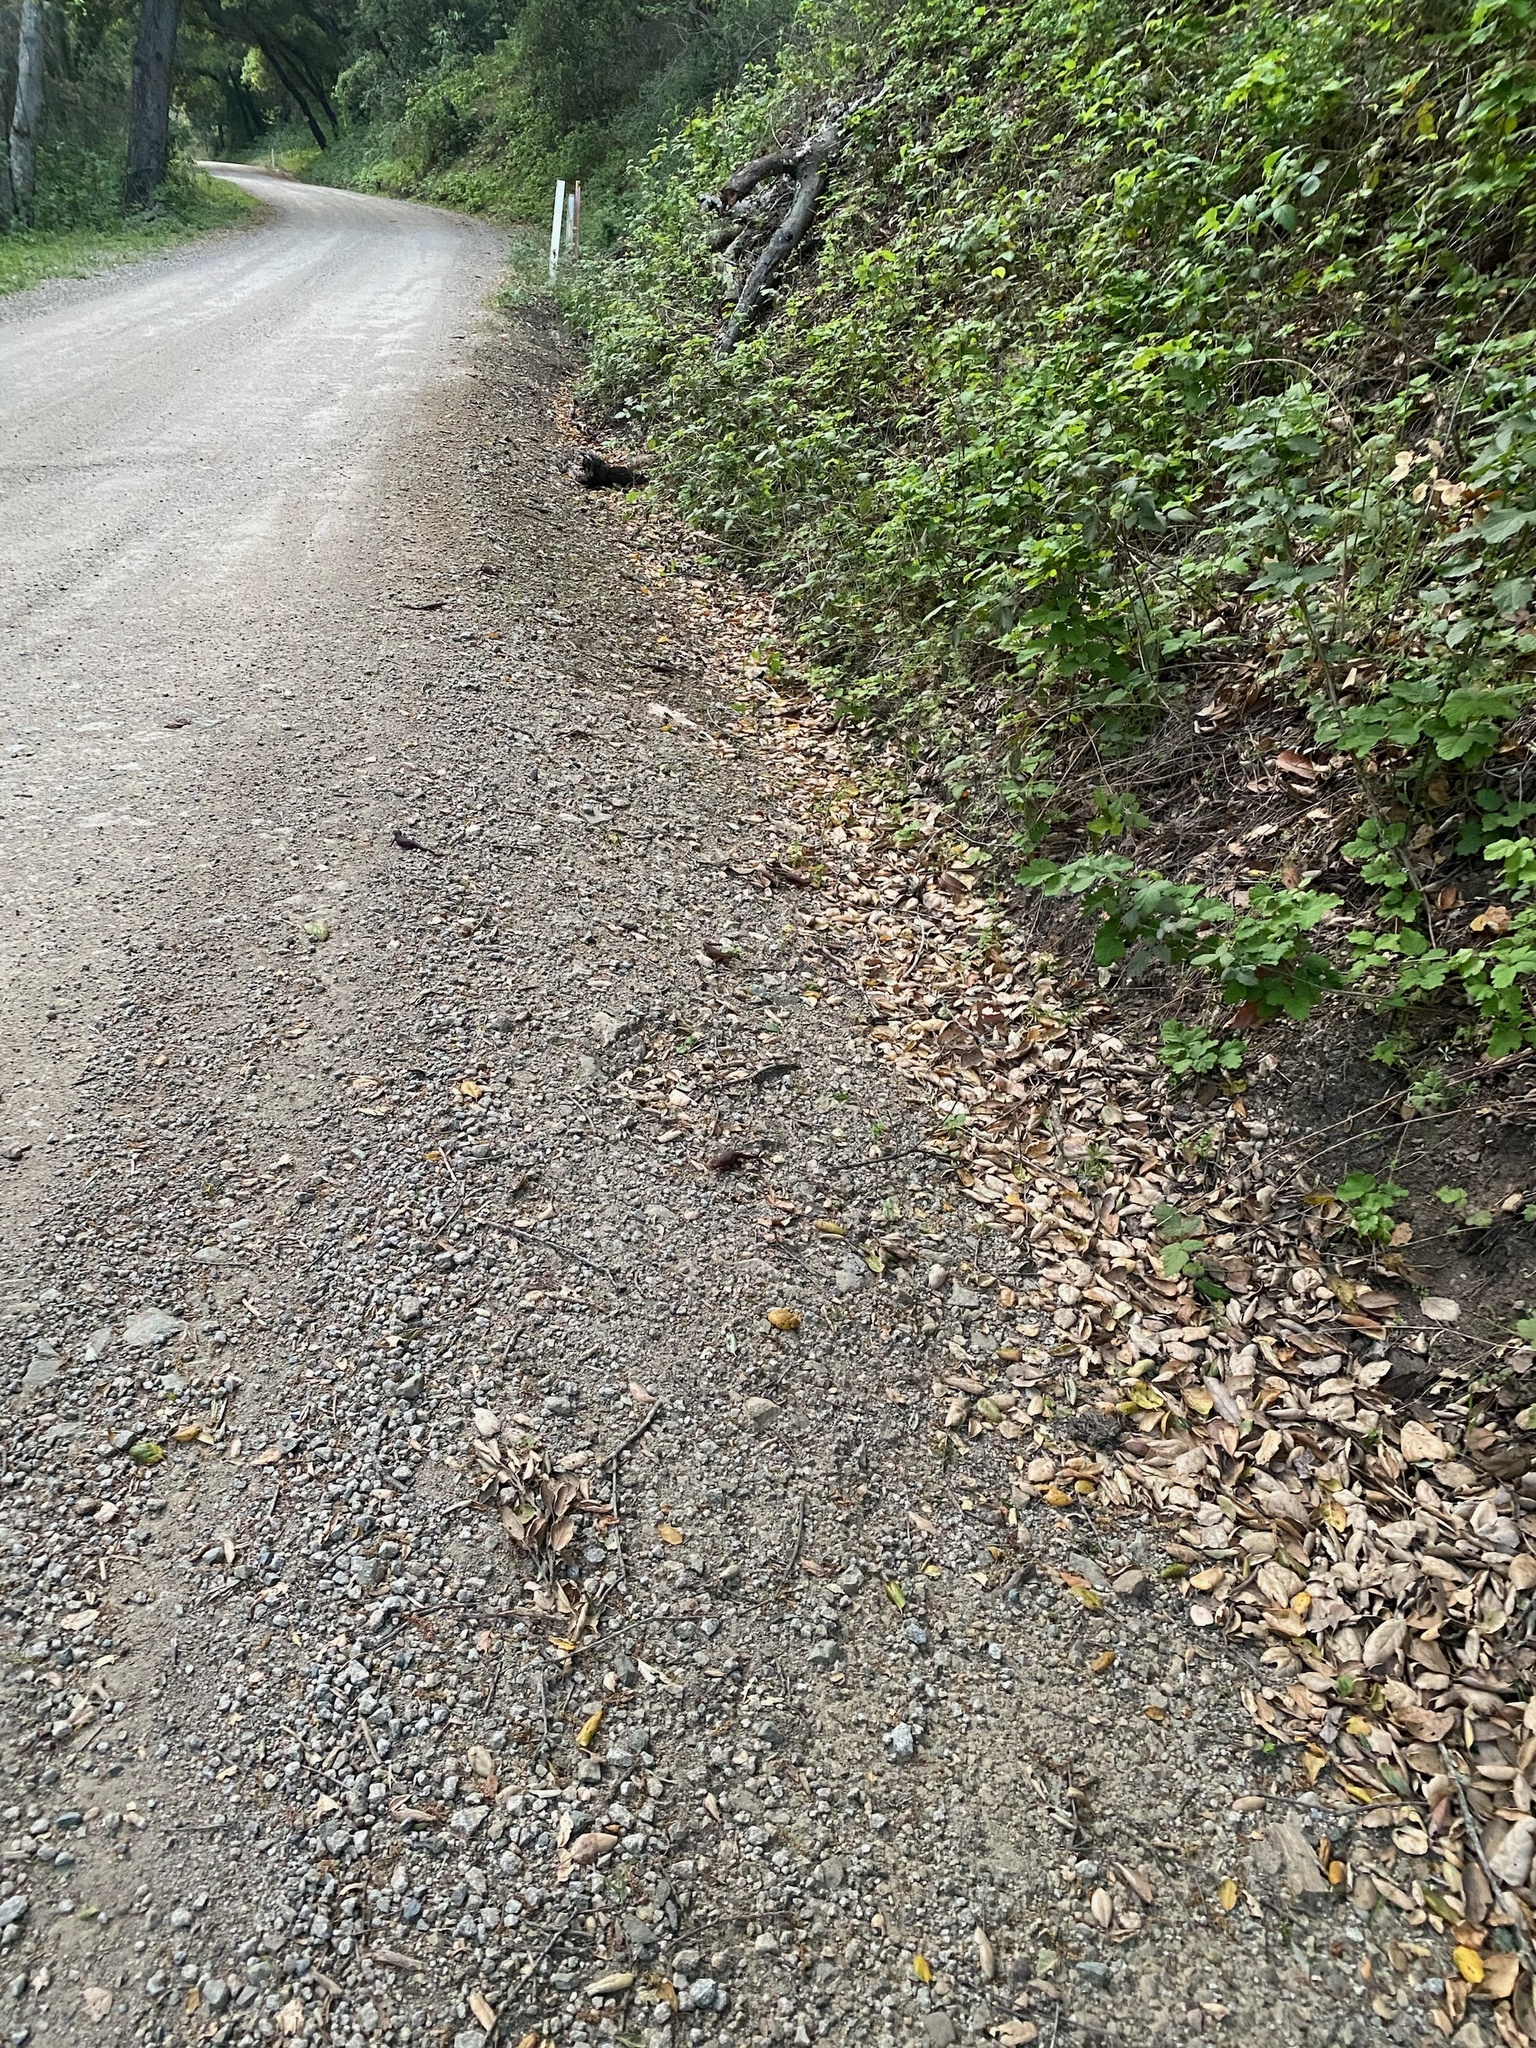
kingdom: Animalia
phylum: Chordata
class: Amphibia
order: Caudata
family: Salamandridae
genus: Taricha
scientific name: Taricha torosa
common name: California newt
